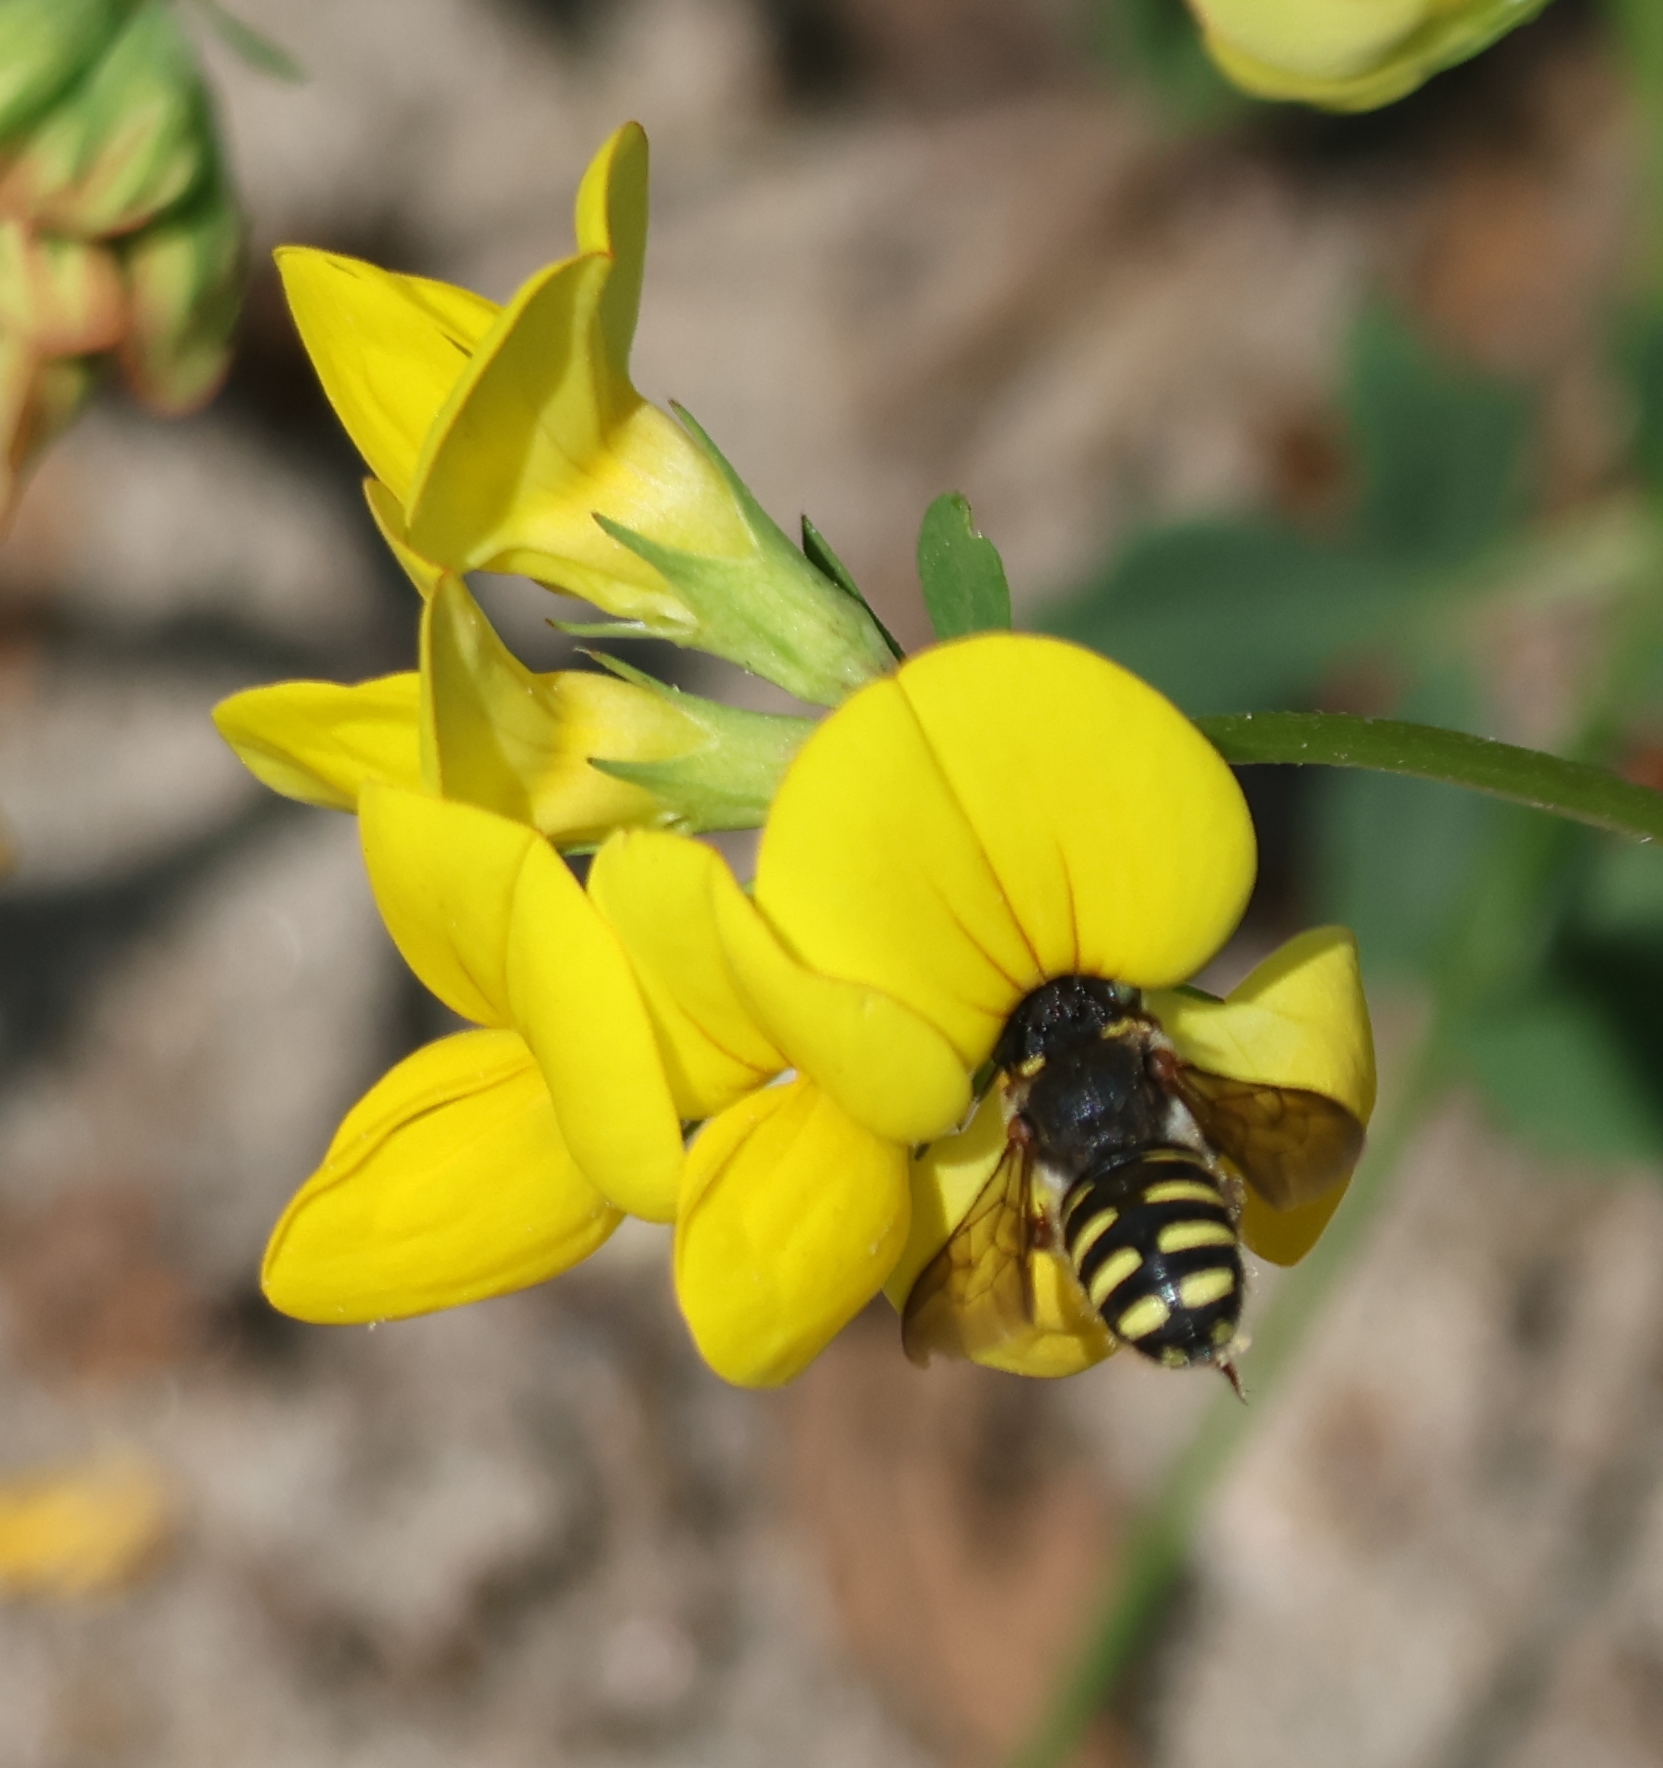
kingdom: Animalia
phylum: Arthropoda
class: Insecta
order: Hymenoptera
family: Megachilidae
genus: Anthidium
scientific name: Anthidium oblongatum
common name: Oblong wool carder bee
